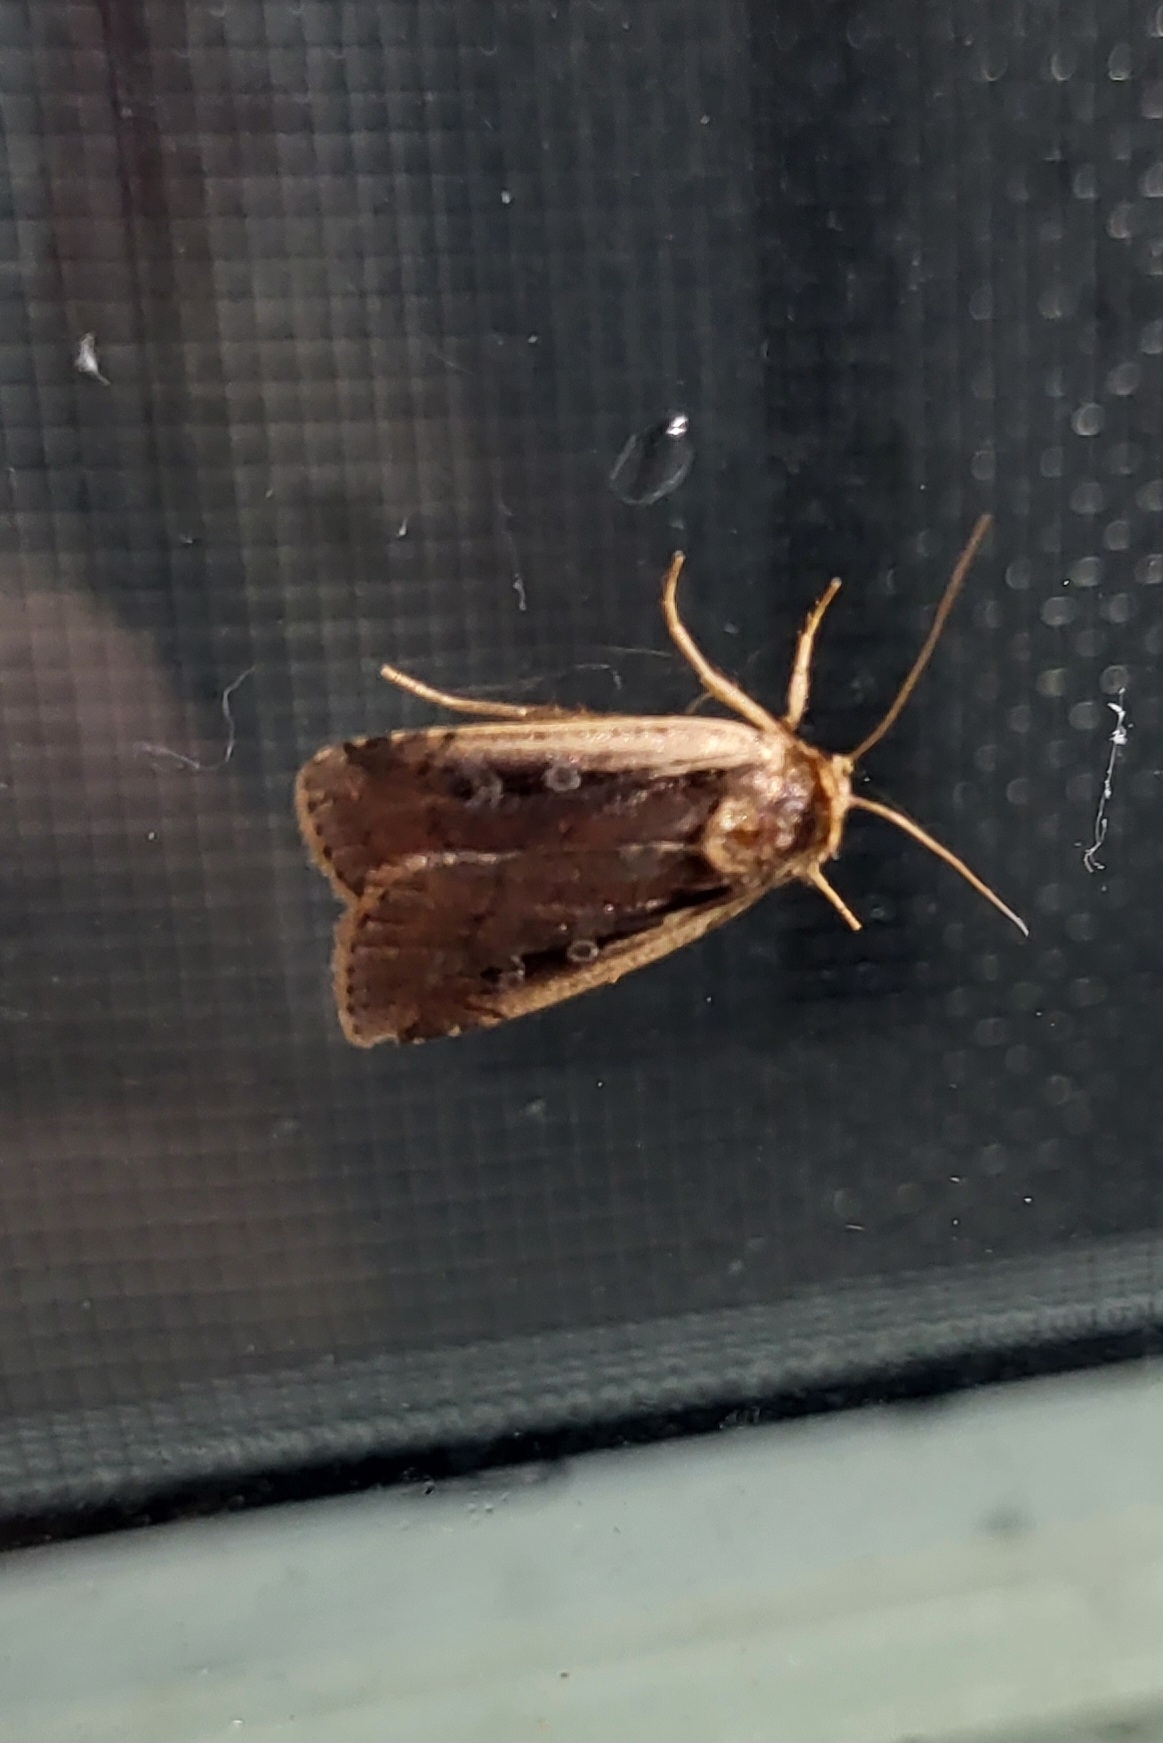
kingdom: Animalia
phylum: Arthropoda
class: Insecta
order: Lepidoptera
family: Noctuidae
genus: Ochropleura
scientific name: Ochropleura implecta
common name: Flame-shouldered dart
